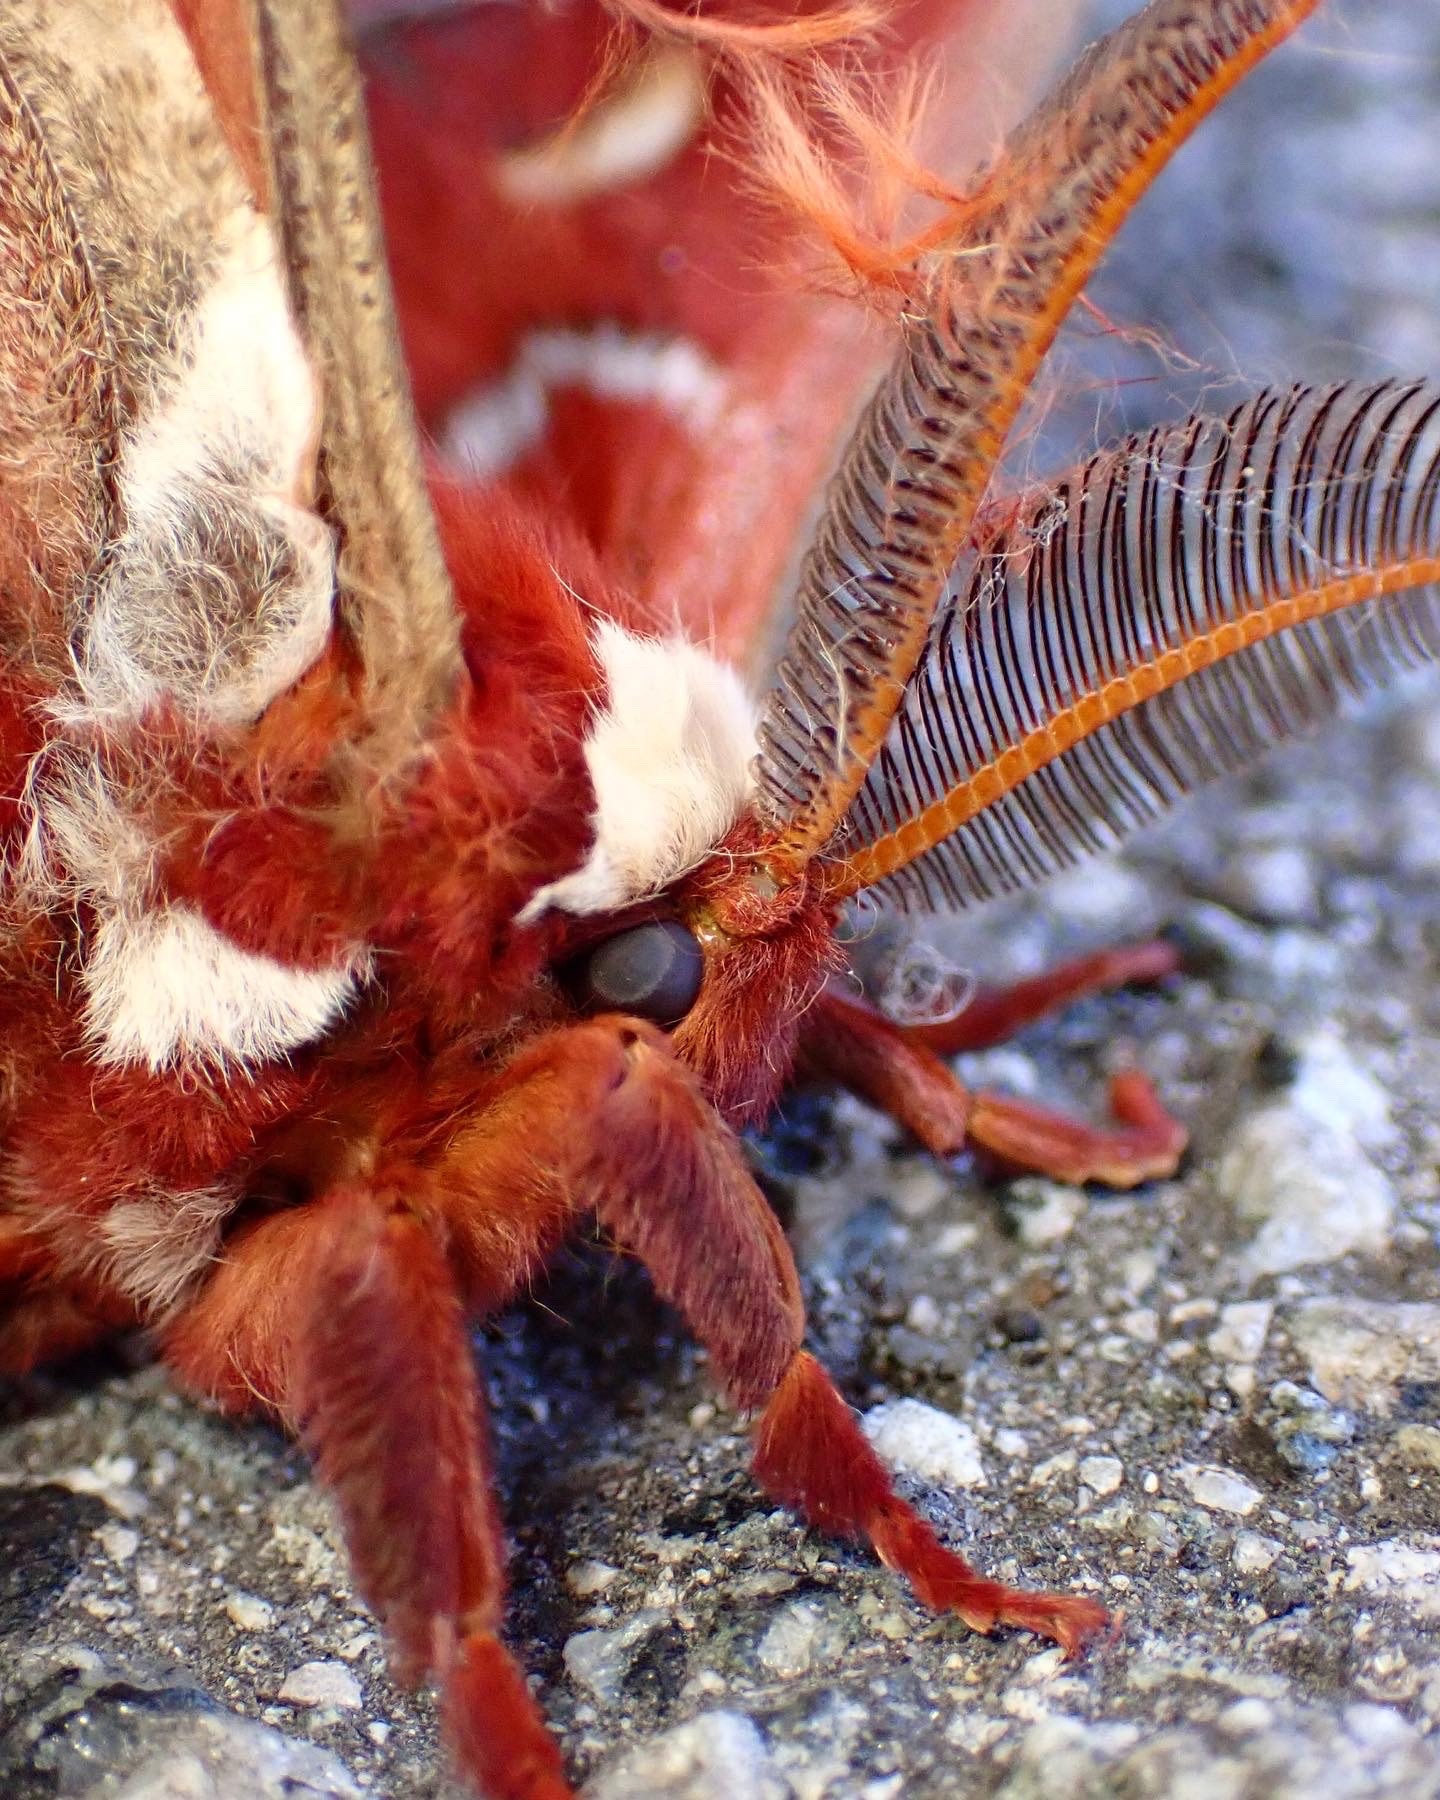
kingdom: Animalia
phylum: Arthropoda
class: Insecta
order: Lepidoptera
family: Saturniidae
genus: Hyalophora
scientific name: Hyalophora euryalus
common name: Ceanothus silkmoth
